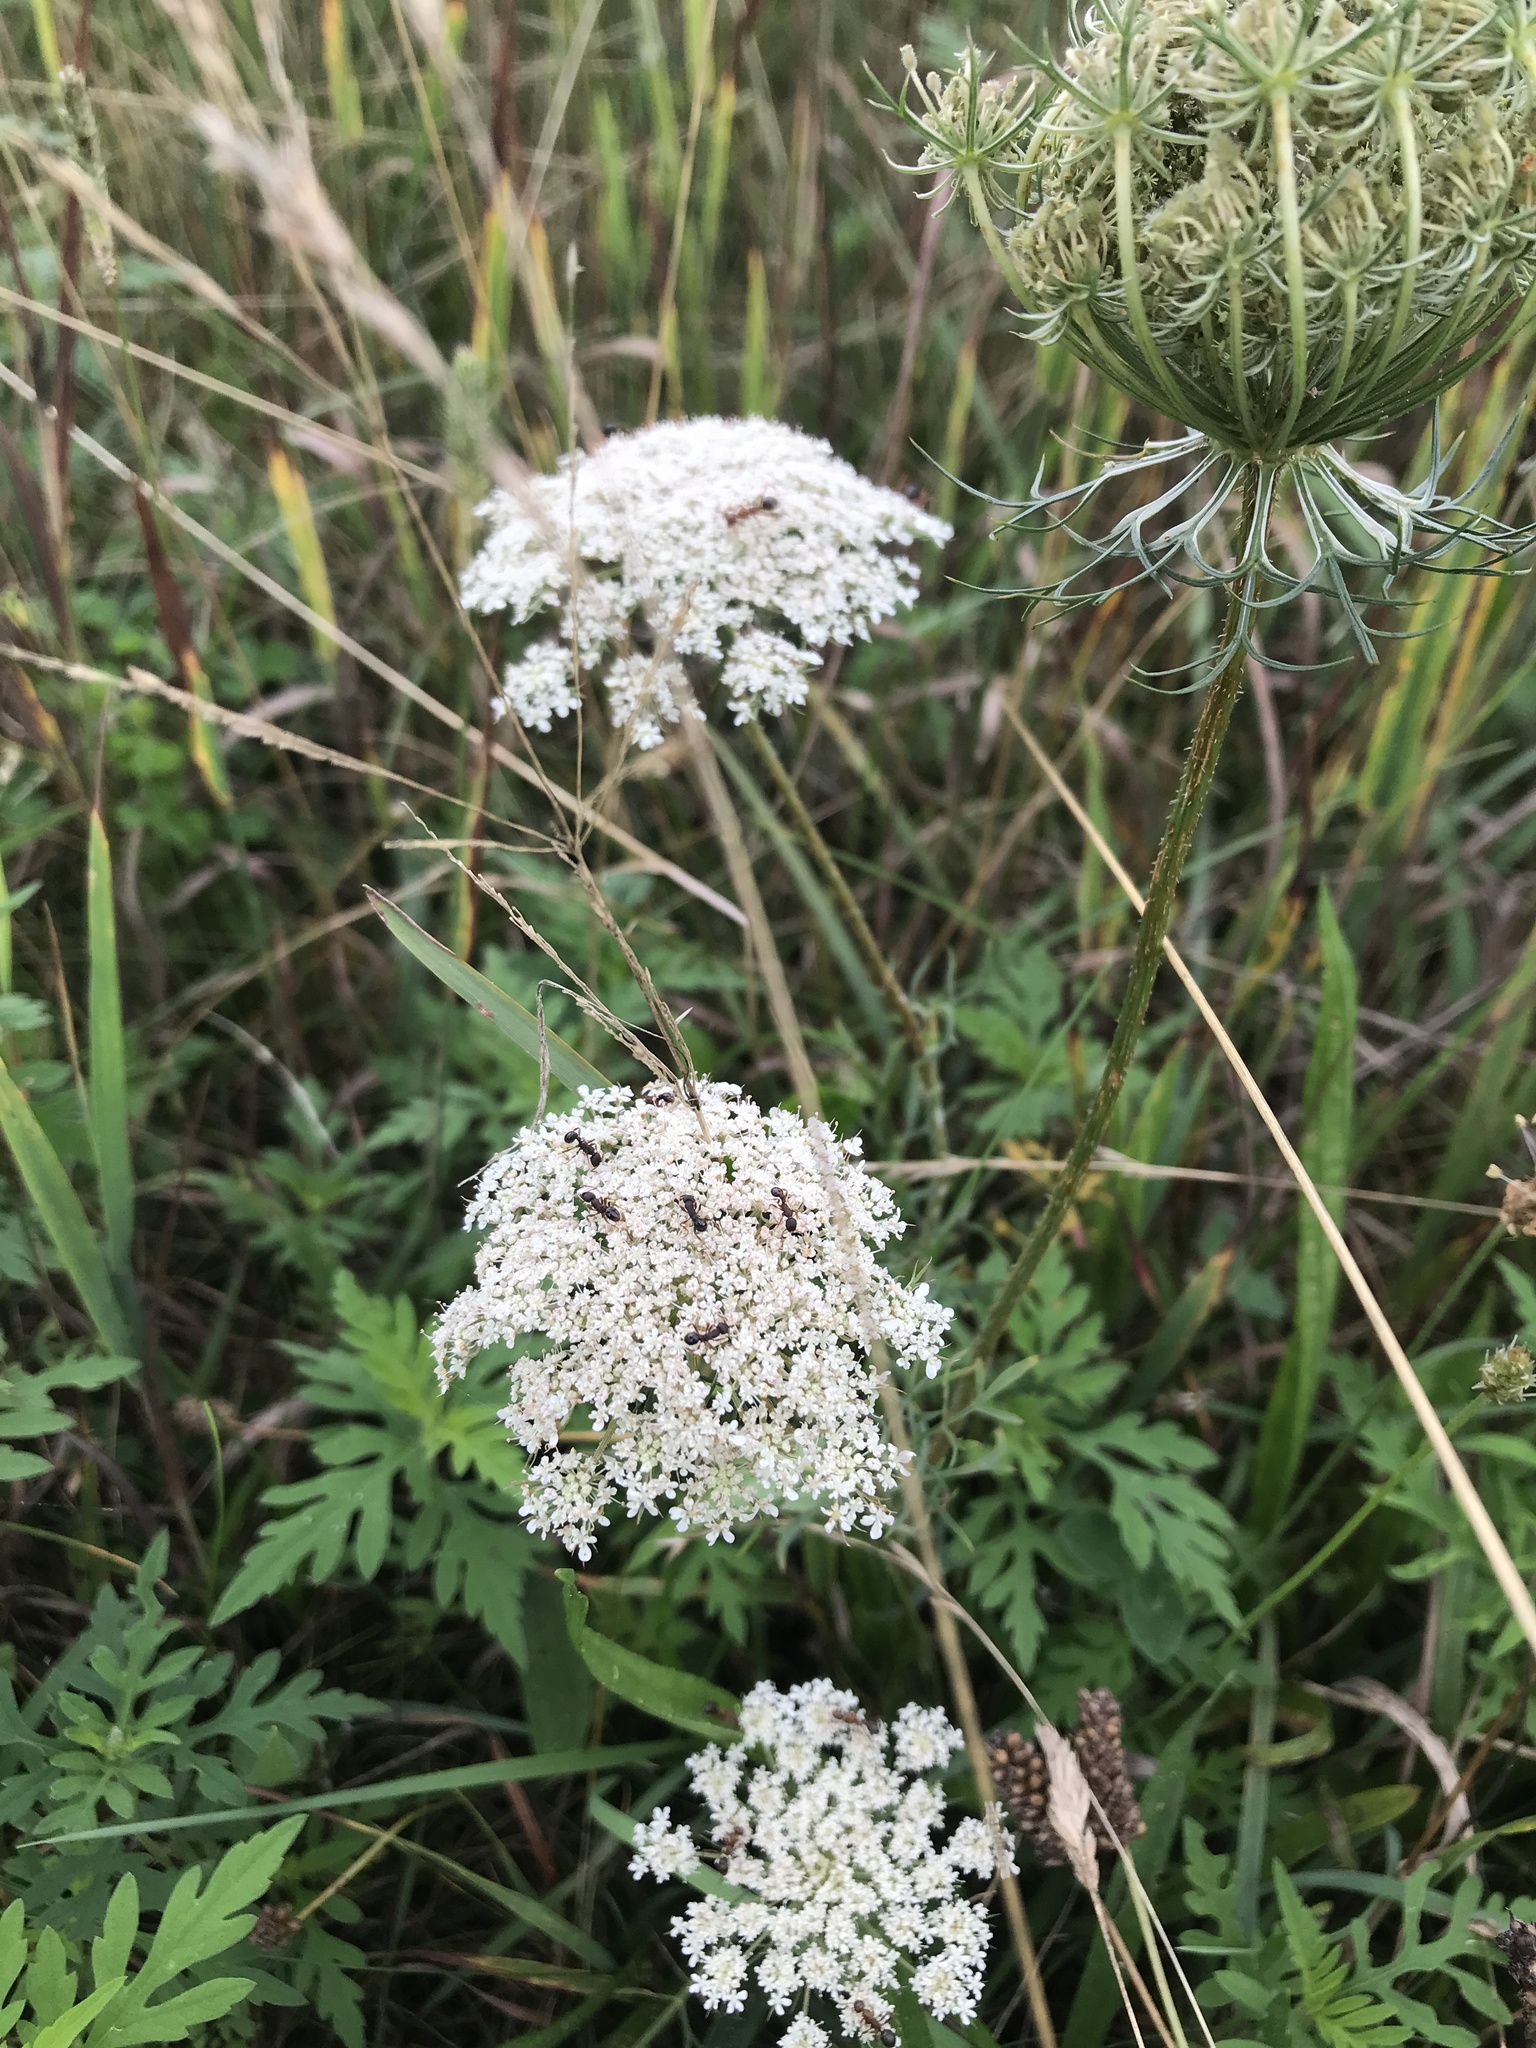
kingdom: Plantae
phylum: Tracheophyta
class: Magnoliopsida
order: Apiales
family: Apiaceae
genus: Daucus
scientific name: Daucus carota
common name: Wild carrot
